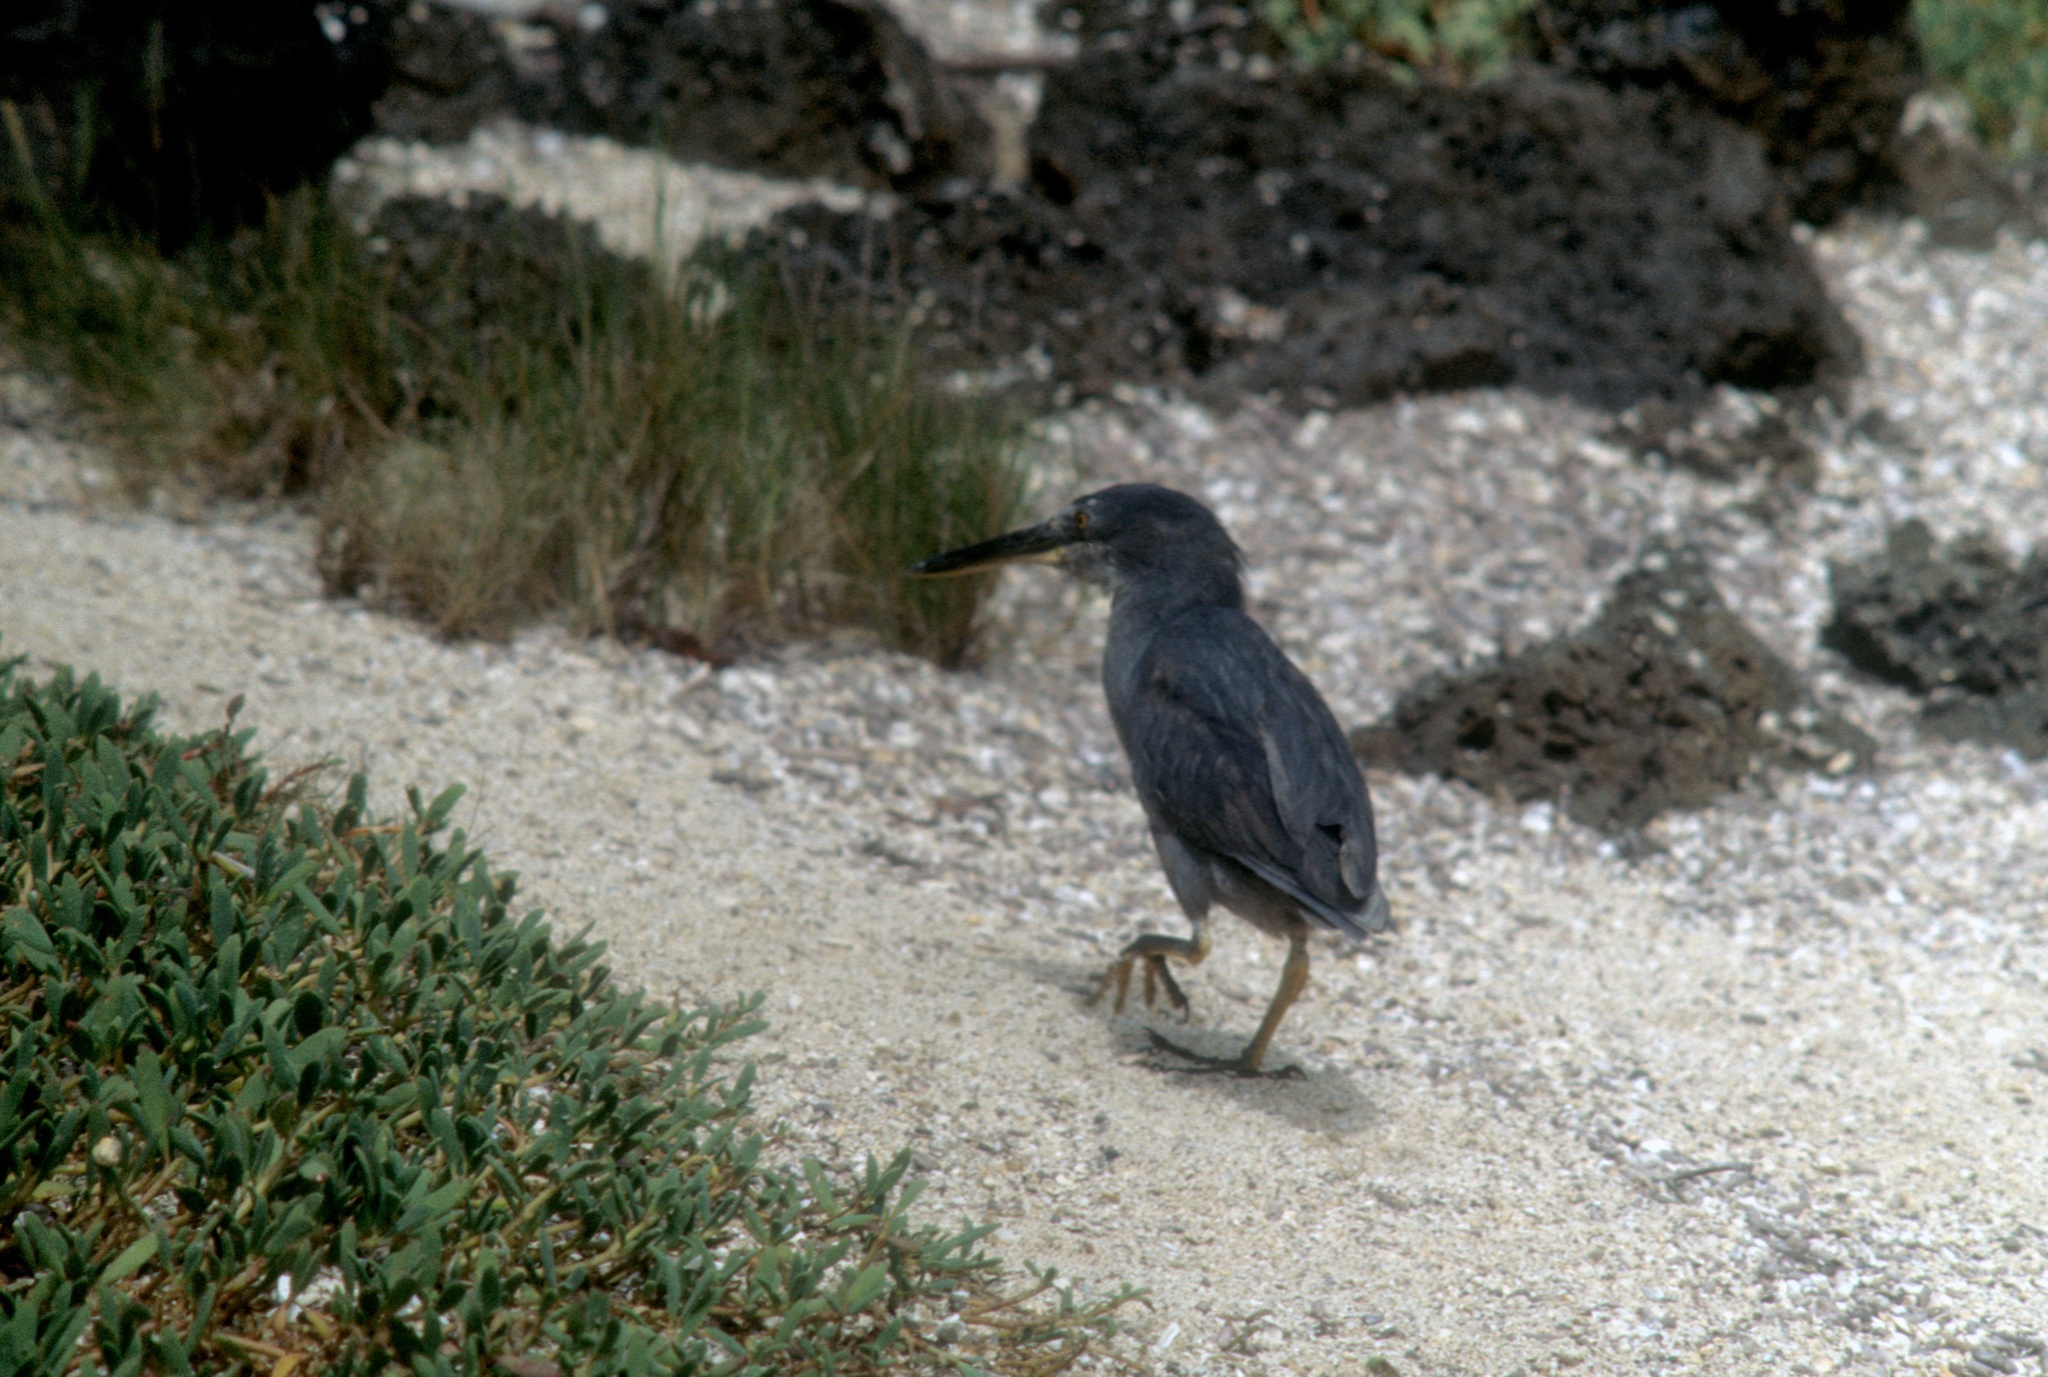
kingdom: Animalia
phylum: Chordata
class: Aves
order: Pelecaniformes
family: Ardeidae
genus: Butorides
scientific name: Butorides striata
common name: Striated heron
